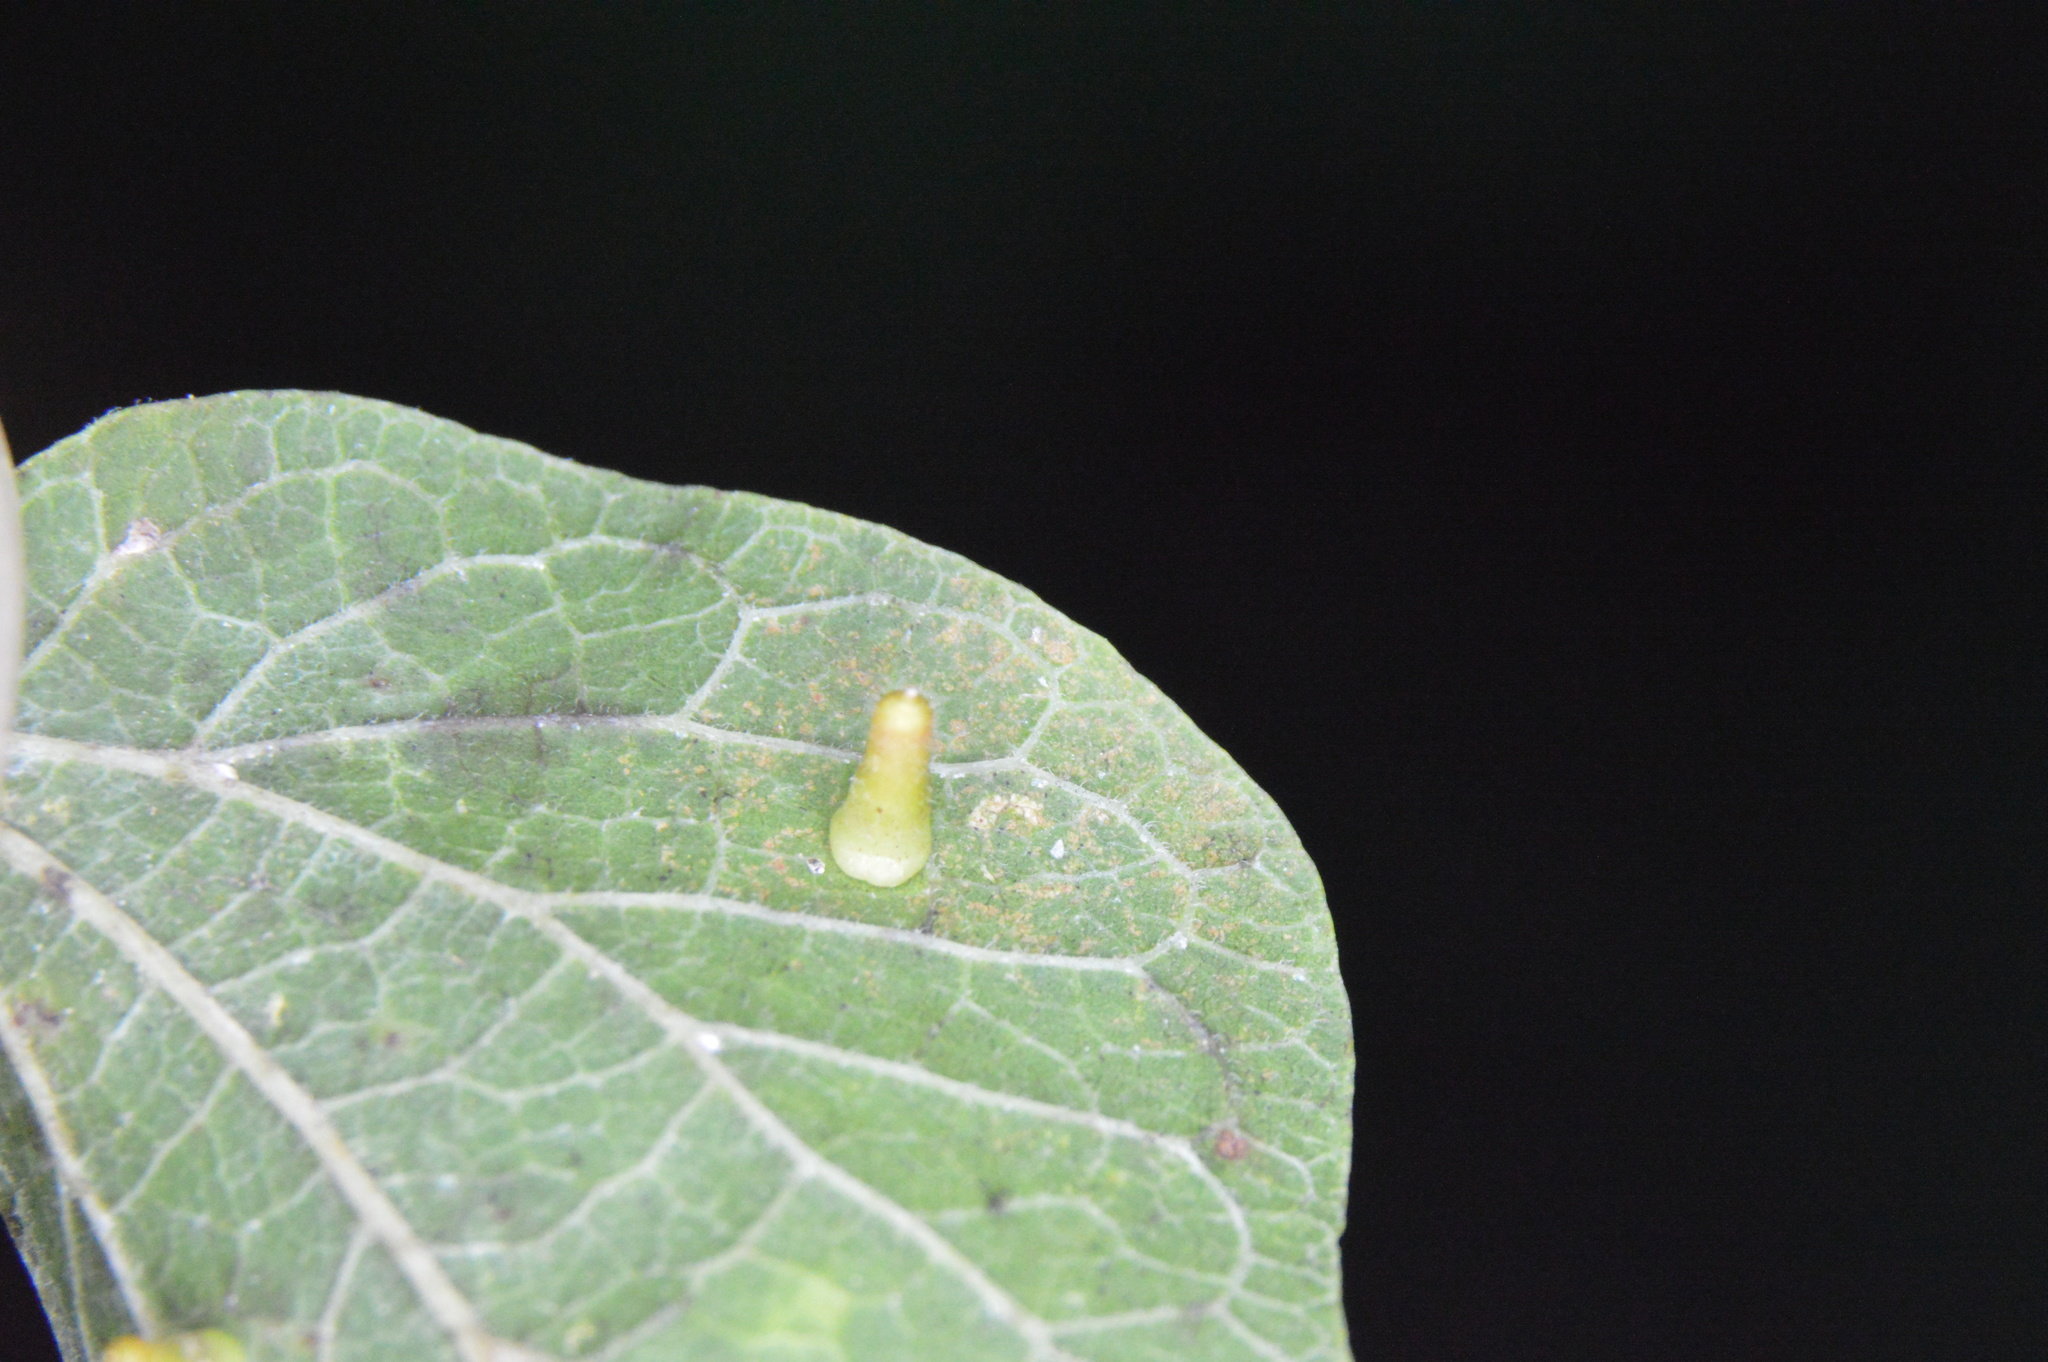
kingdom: Animalia
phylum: Arthropoda
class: Insecta
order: Diptera
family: Cecidomyiidae
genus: Celticecis
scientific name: Celticecis aciculata
